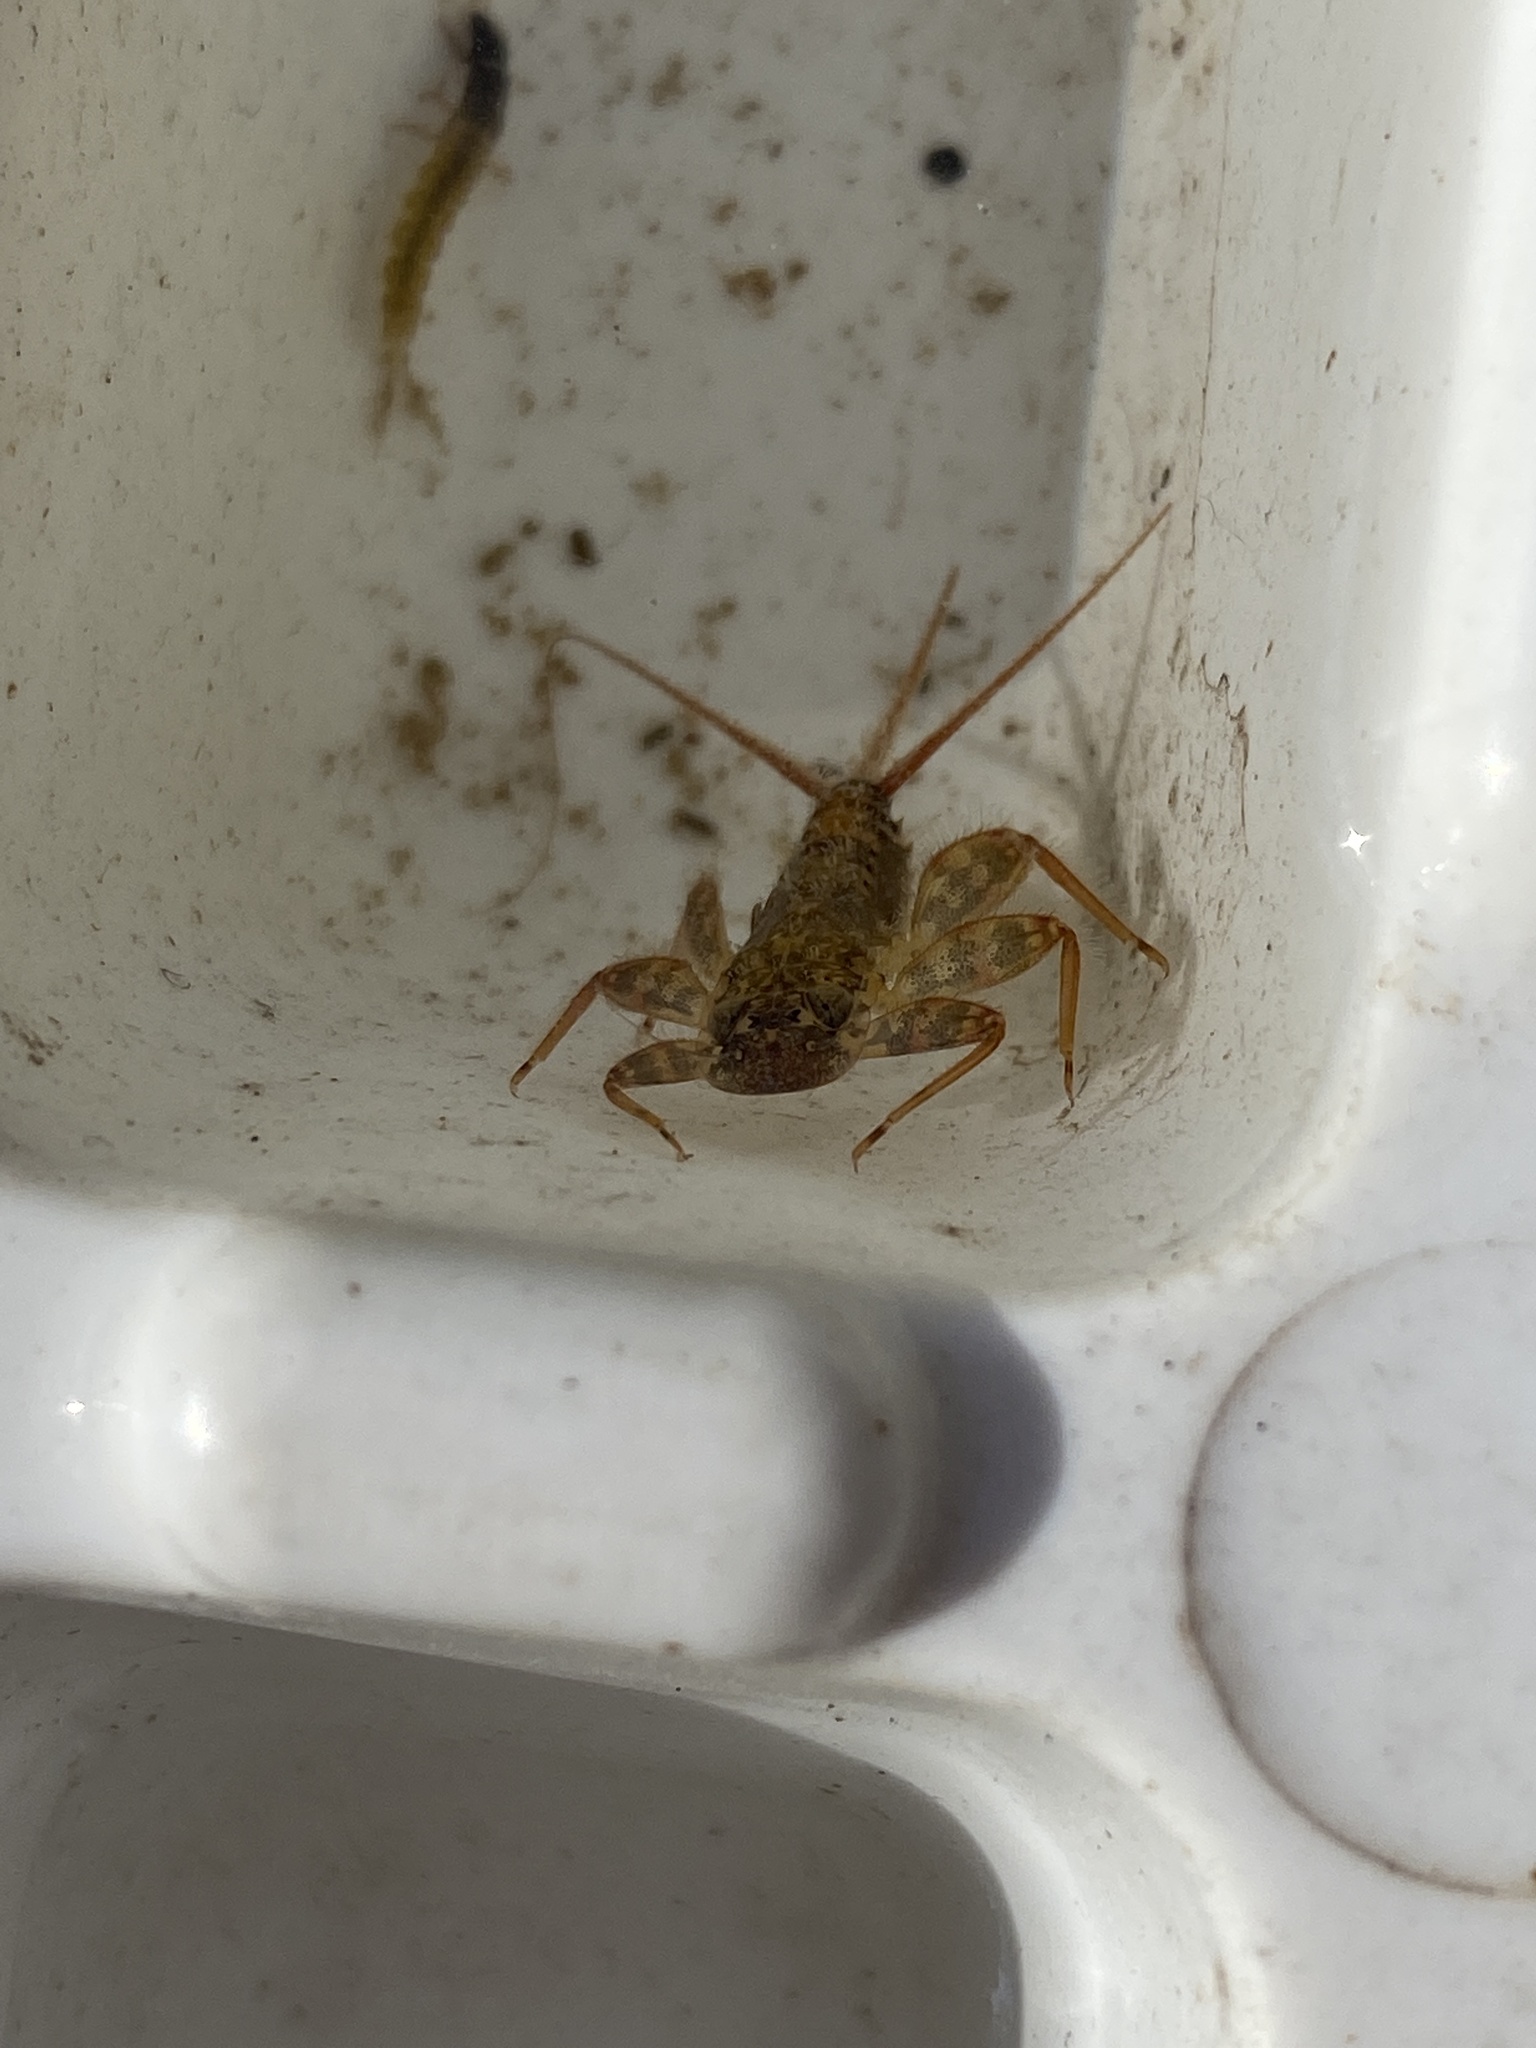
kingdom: Animalia
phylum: Arthropoda
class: Insecta
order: Ephemeroptera
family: Heptageniidae
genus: Stenonema
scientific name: Stenonema femoratum
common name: Dark cahill
